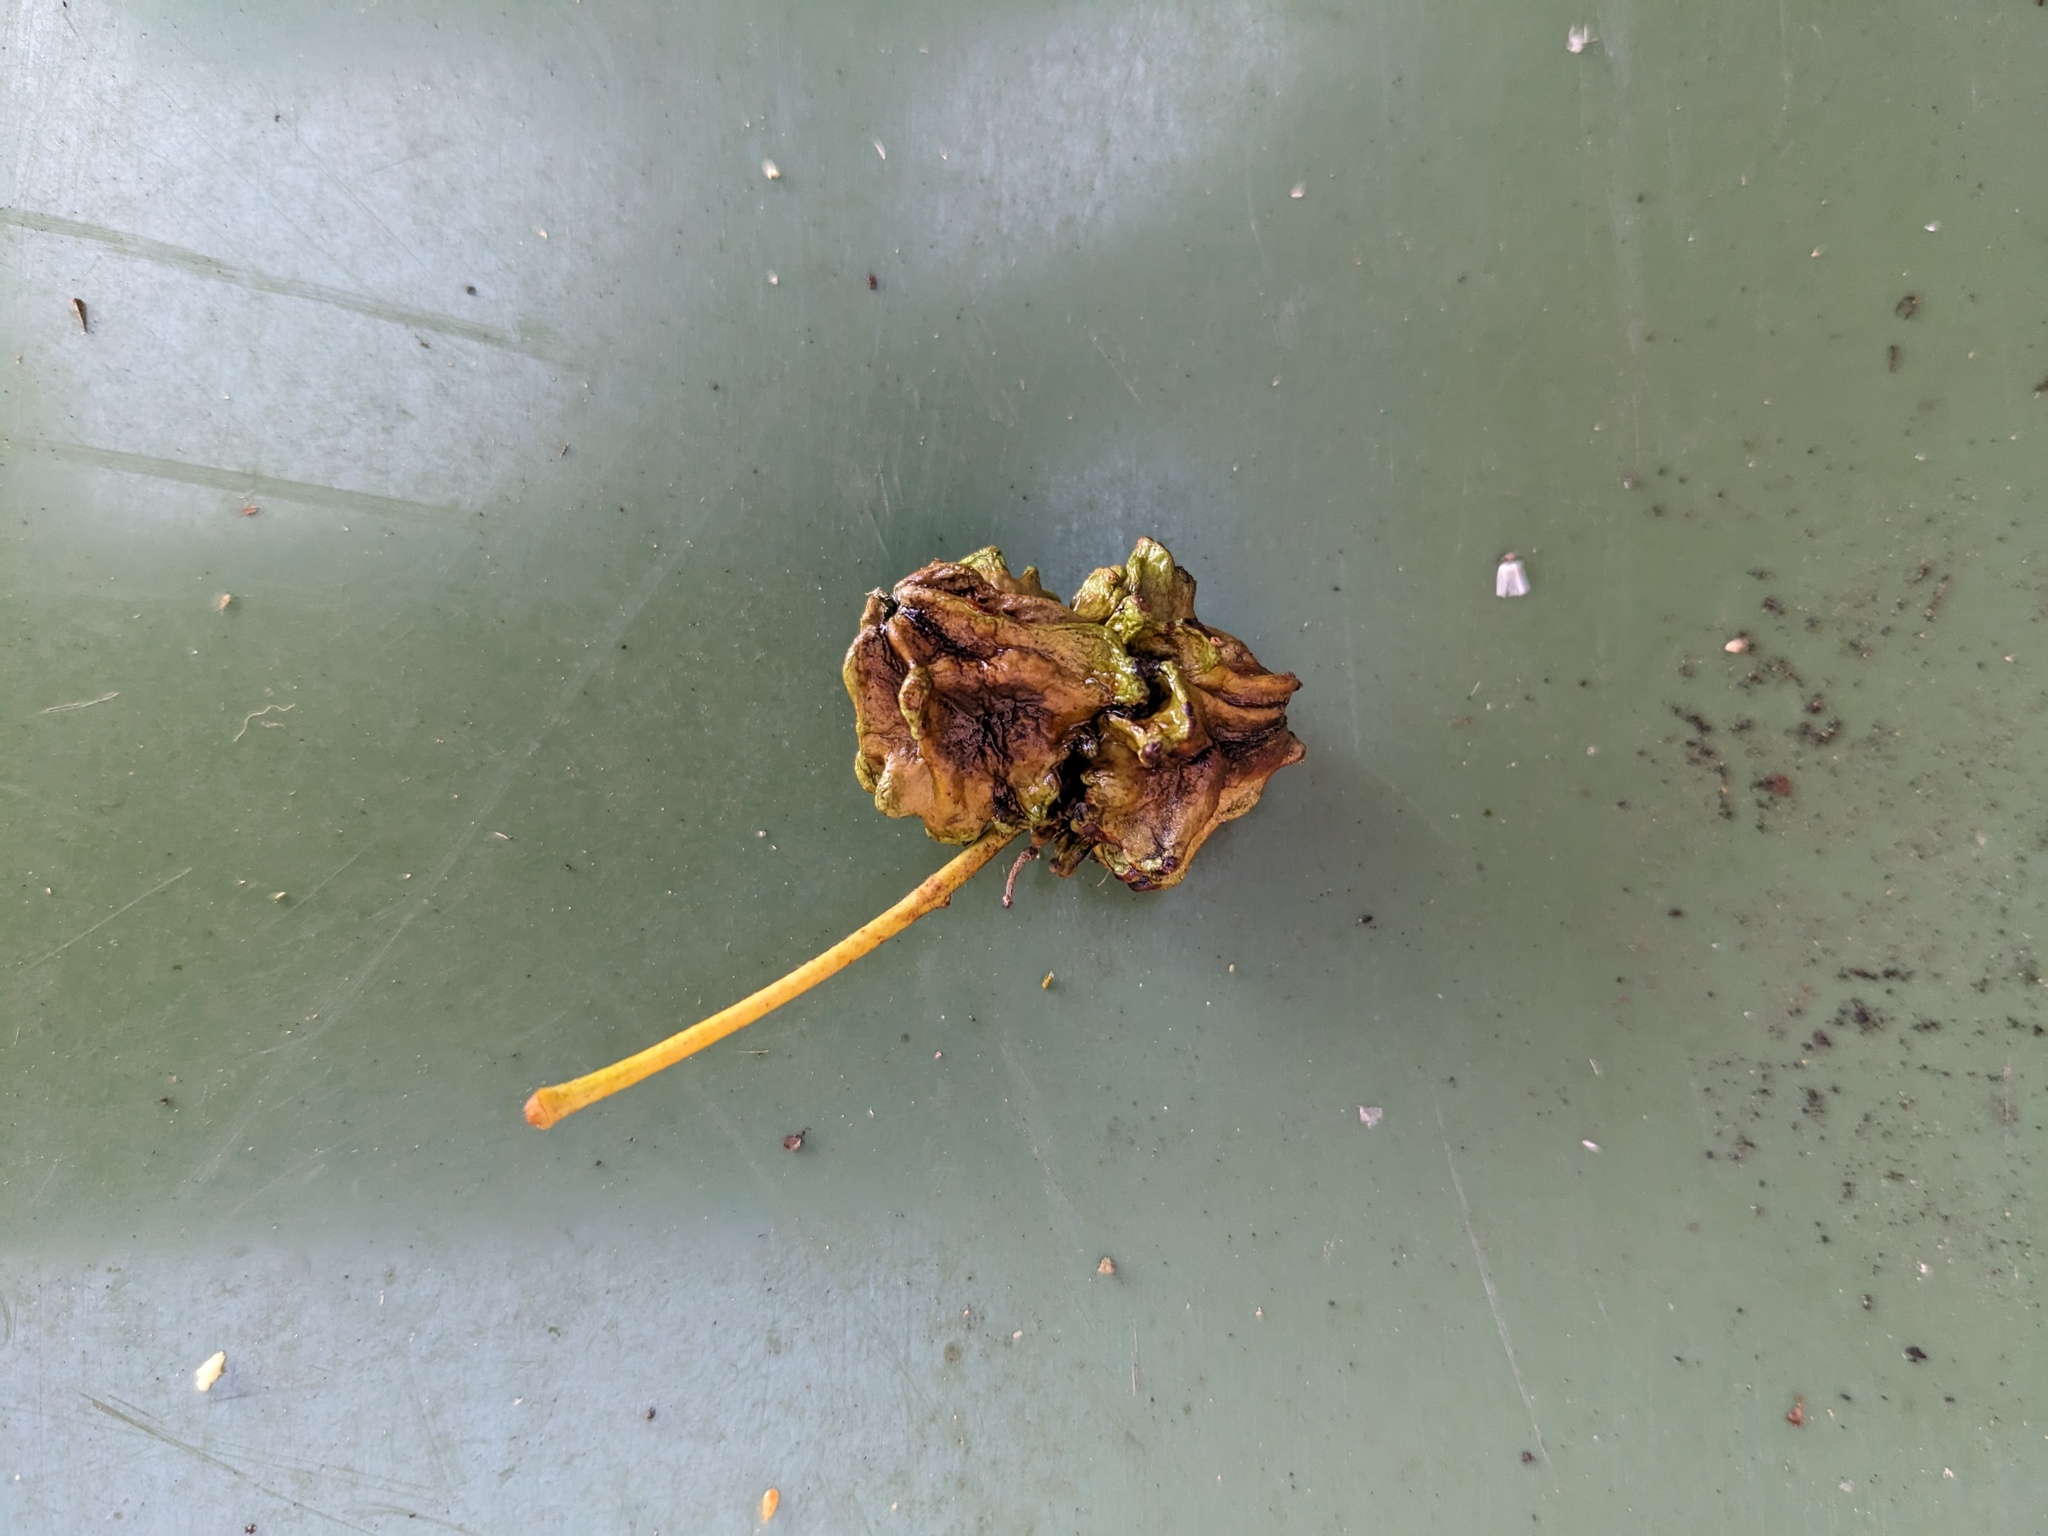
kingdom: Animalia
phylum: Arthropoda
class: Insecta
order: Hymenoptera
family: Cynipidae
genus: Andricus
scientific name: Andricus quercuscalicis
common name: Knopper gall
